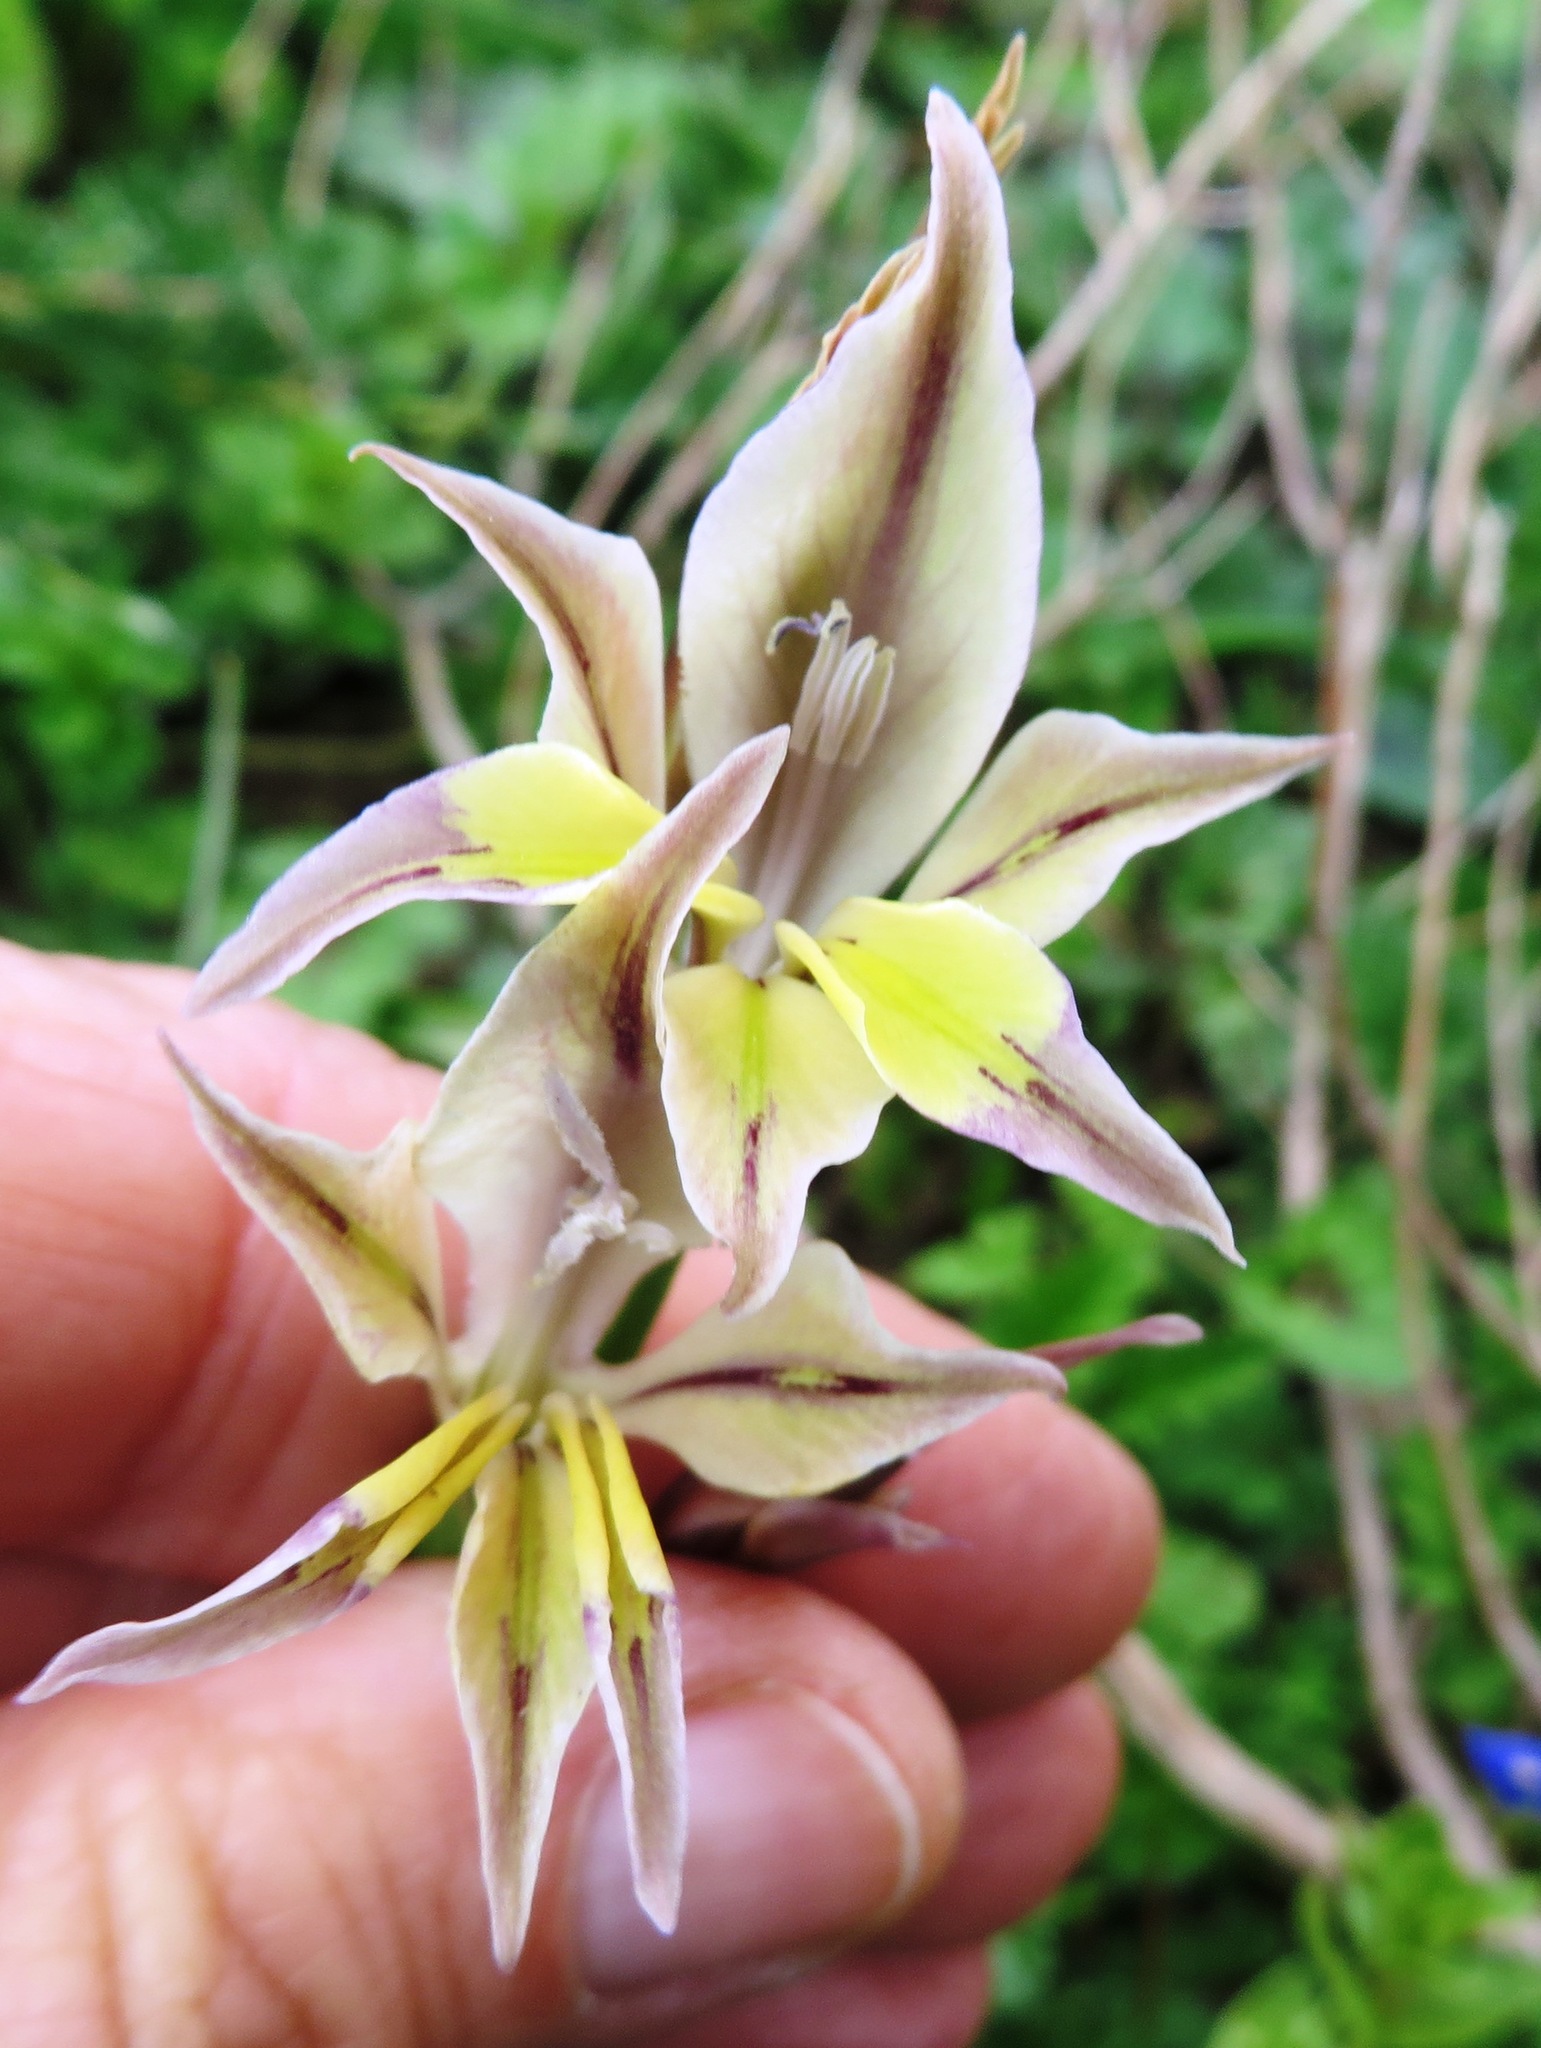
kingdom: Plantae
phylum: Tracheophyta
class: Liliopsida
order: Asparagales
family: Iridaceae
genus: Gladiolus
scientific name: Gladiolus permeabilis
